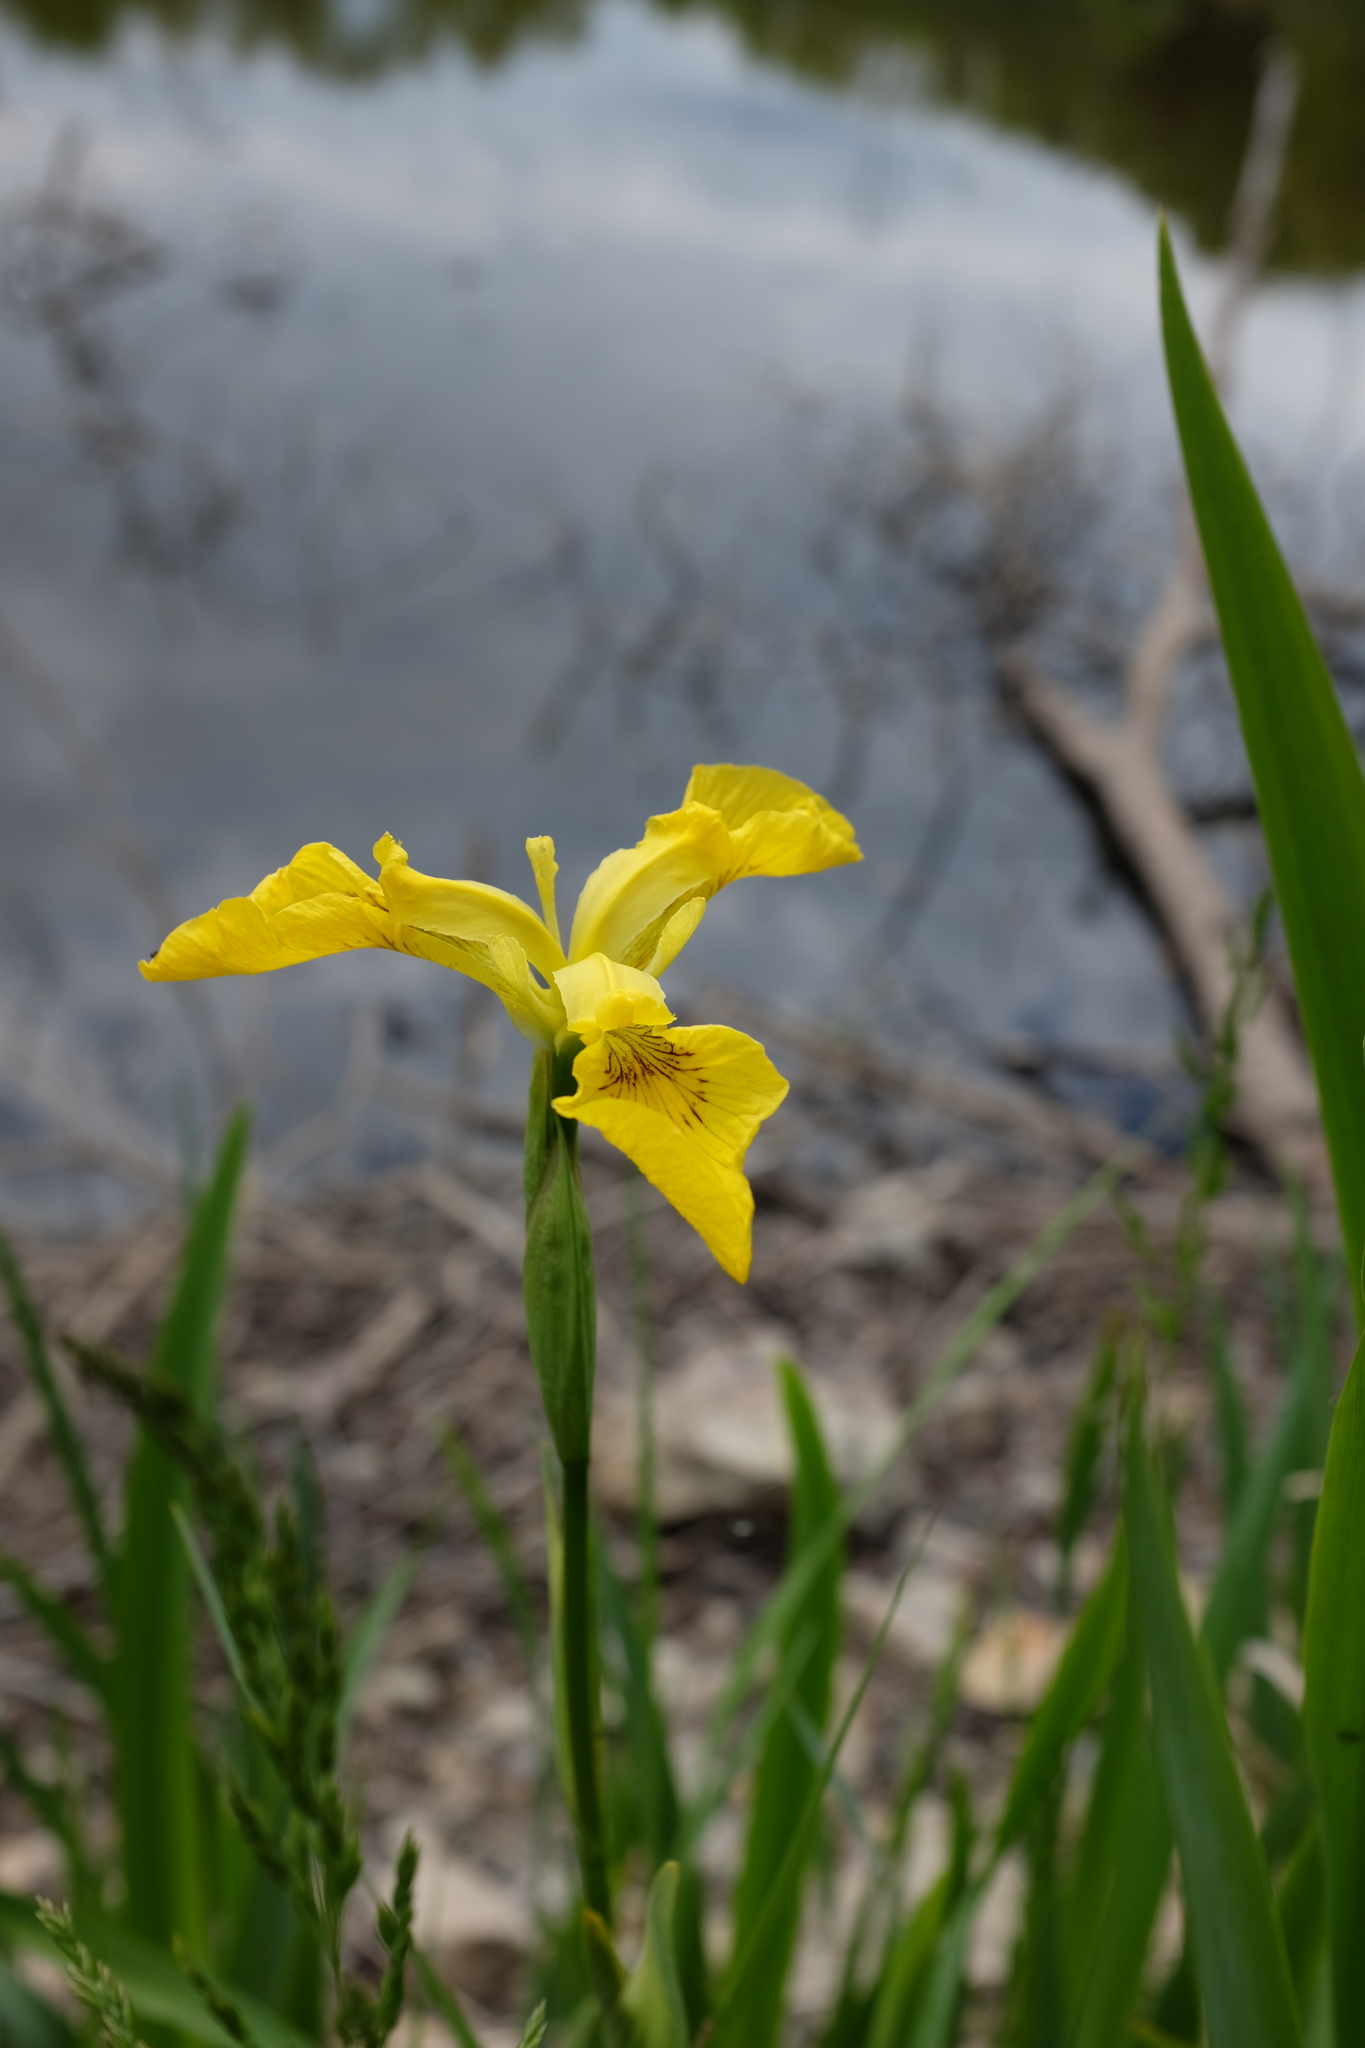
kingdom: Plantae
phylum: Tracheophyta
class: Liliopsida
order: Asparagales
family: Iridaceae
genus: Iris
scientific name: Iris pseudacorus
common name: Yellow flag
